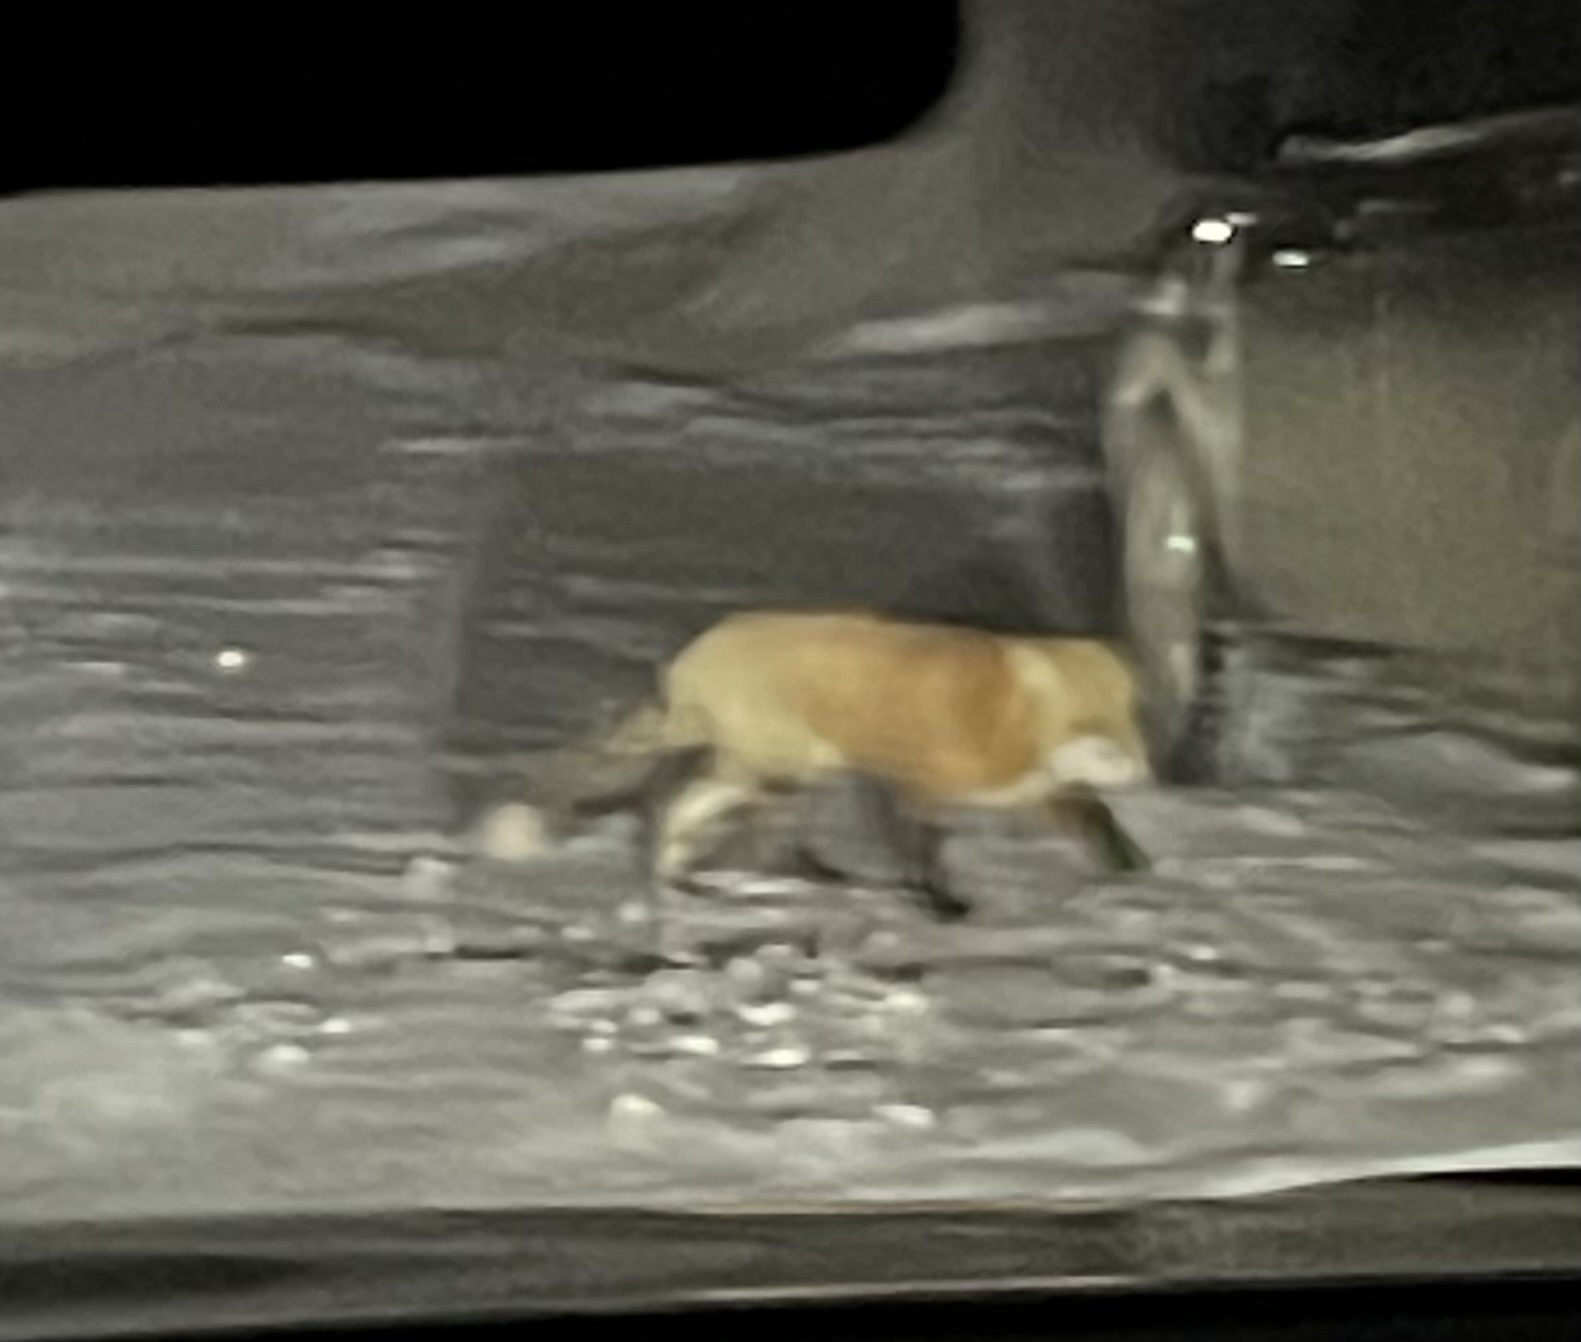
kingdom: Animalia
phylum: Chordata
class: Mammalia
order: Carnivora
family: Canidae
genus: Vulpes
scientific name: Vulpes vulpes
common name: Red fox
